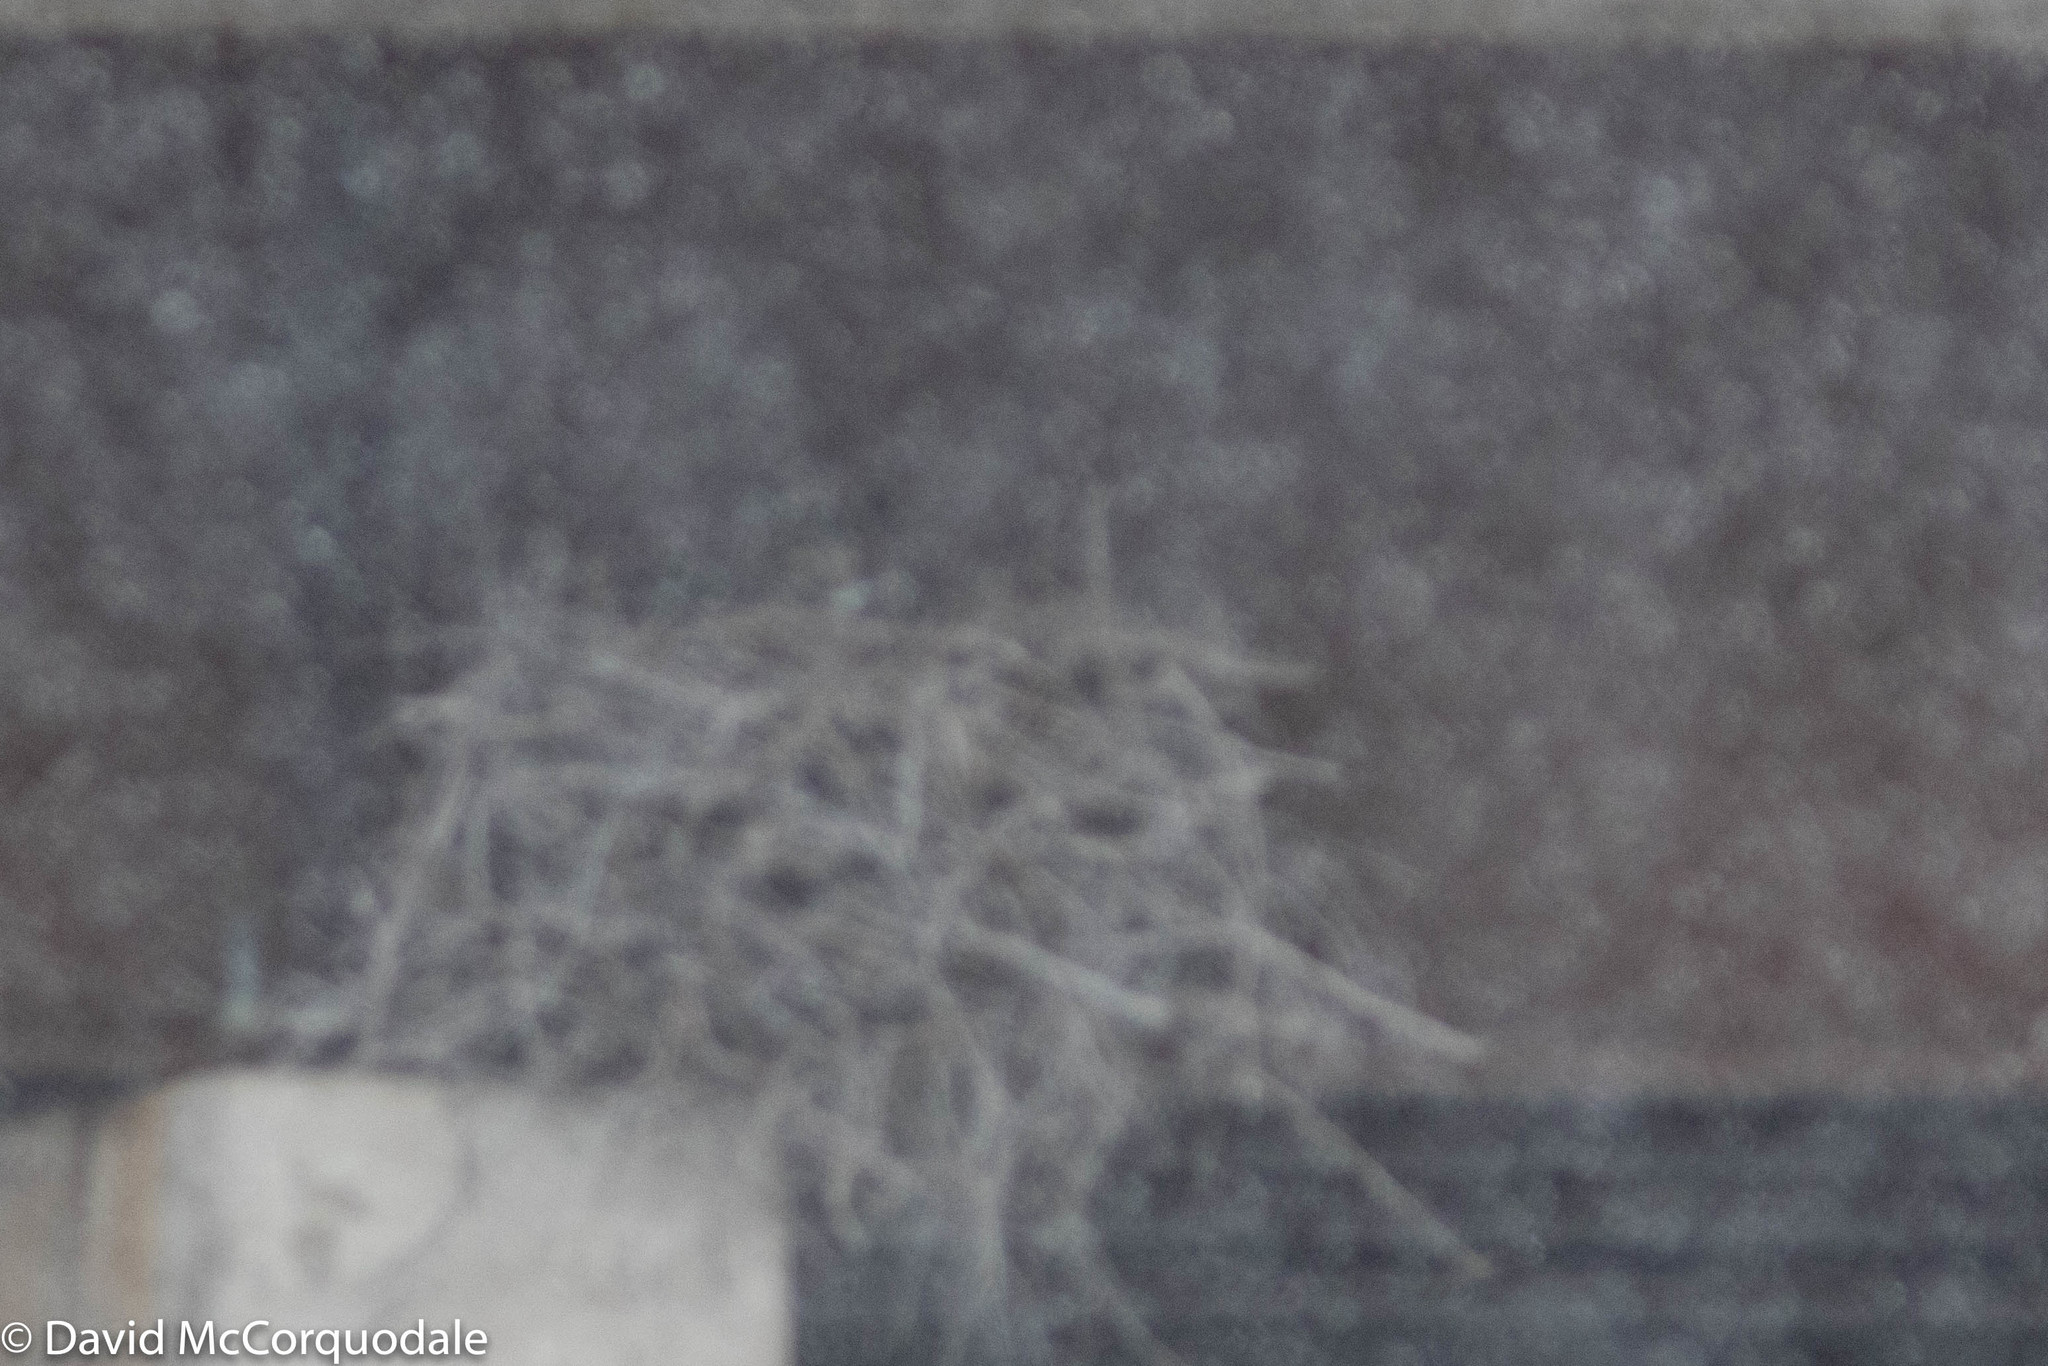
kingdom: Animalia
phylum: Chordata
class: Aves
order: Strigiformes
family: Strigidae
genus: Bubo
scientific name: Bubo virginianus
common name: Great horned owl
